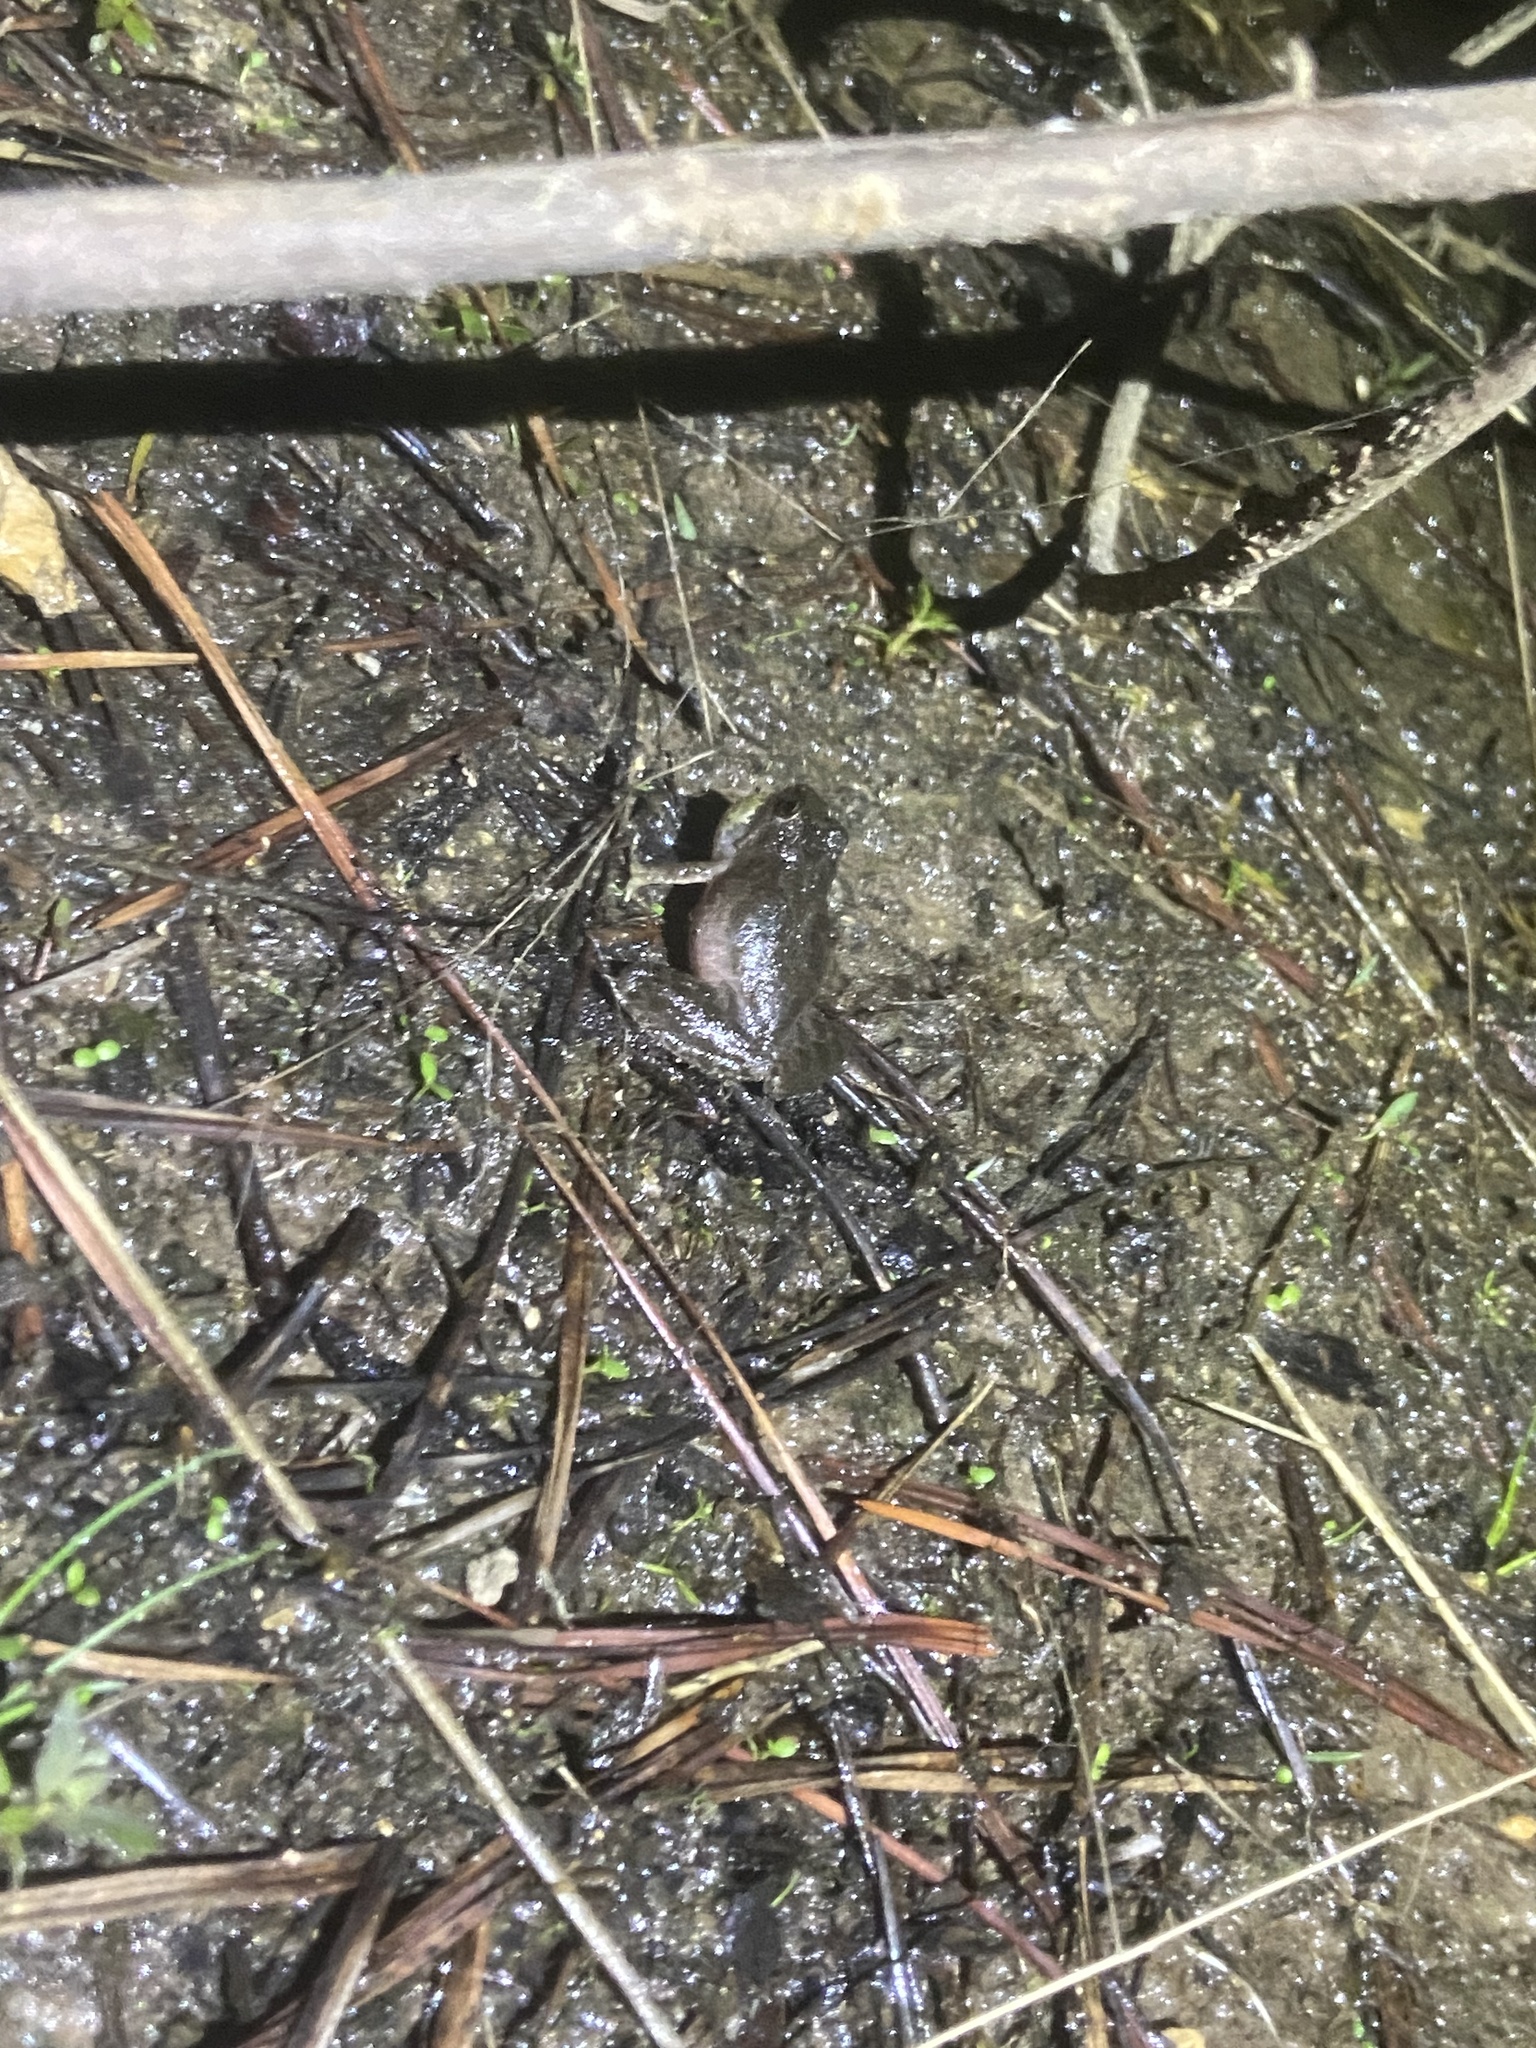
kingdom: Animalia
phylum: Chordata
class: Amphibia
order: Anura
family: Hylidae
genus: Acris
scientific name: Acris blanchardi
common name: Blanchard's cricket frog
